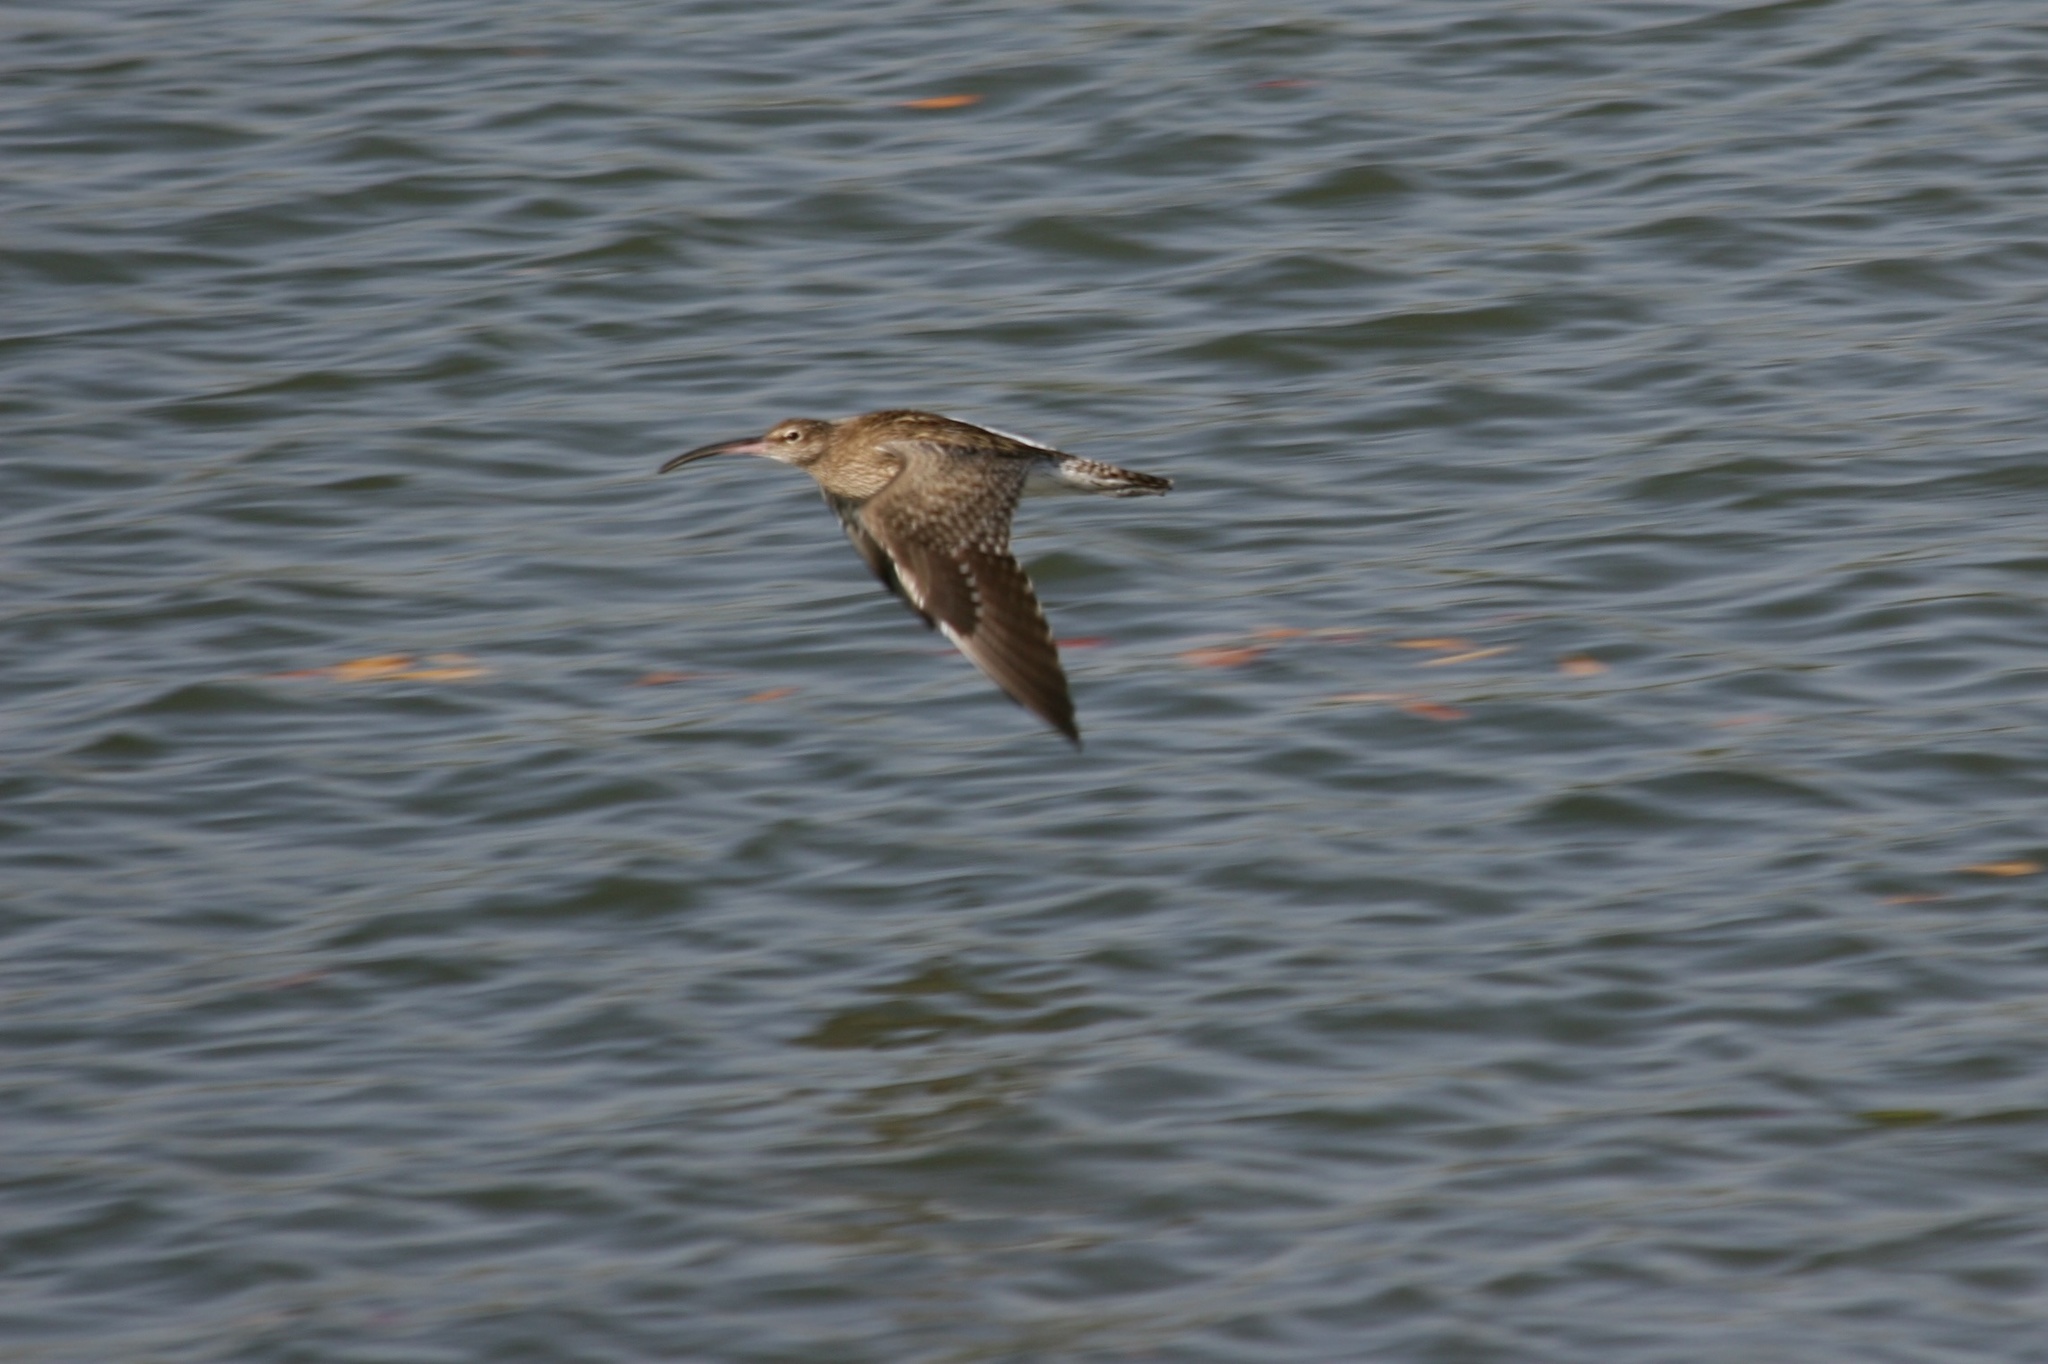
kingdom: Animalia
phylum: Chordata
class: Aves
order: Charadriiformes
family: Scolopacidae
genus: Numenius
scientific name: Numenius phaeopus
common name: Whimbrel
